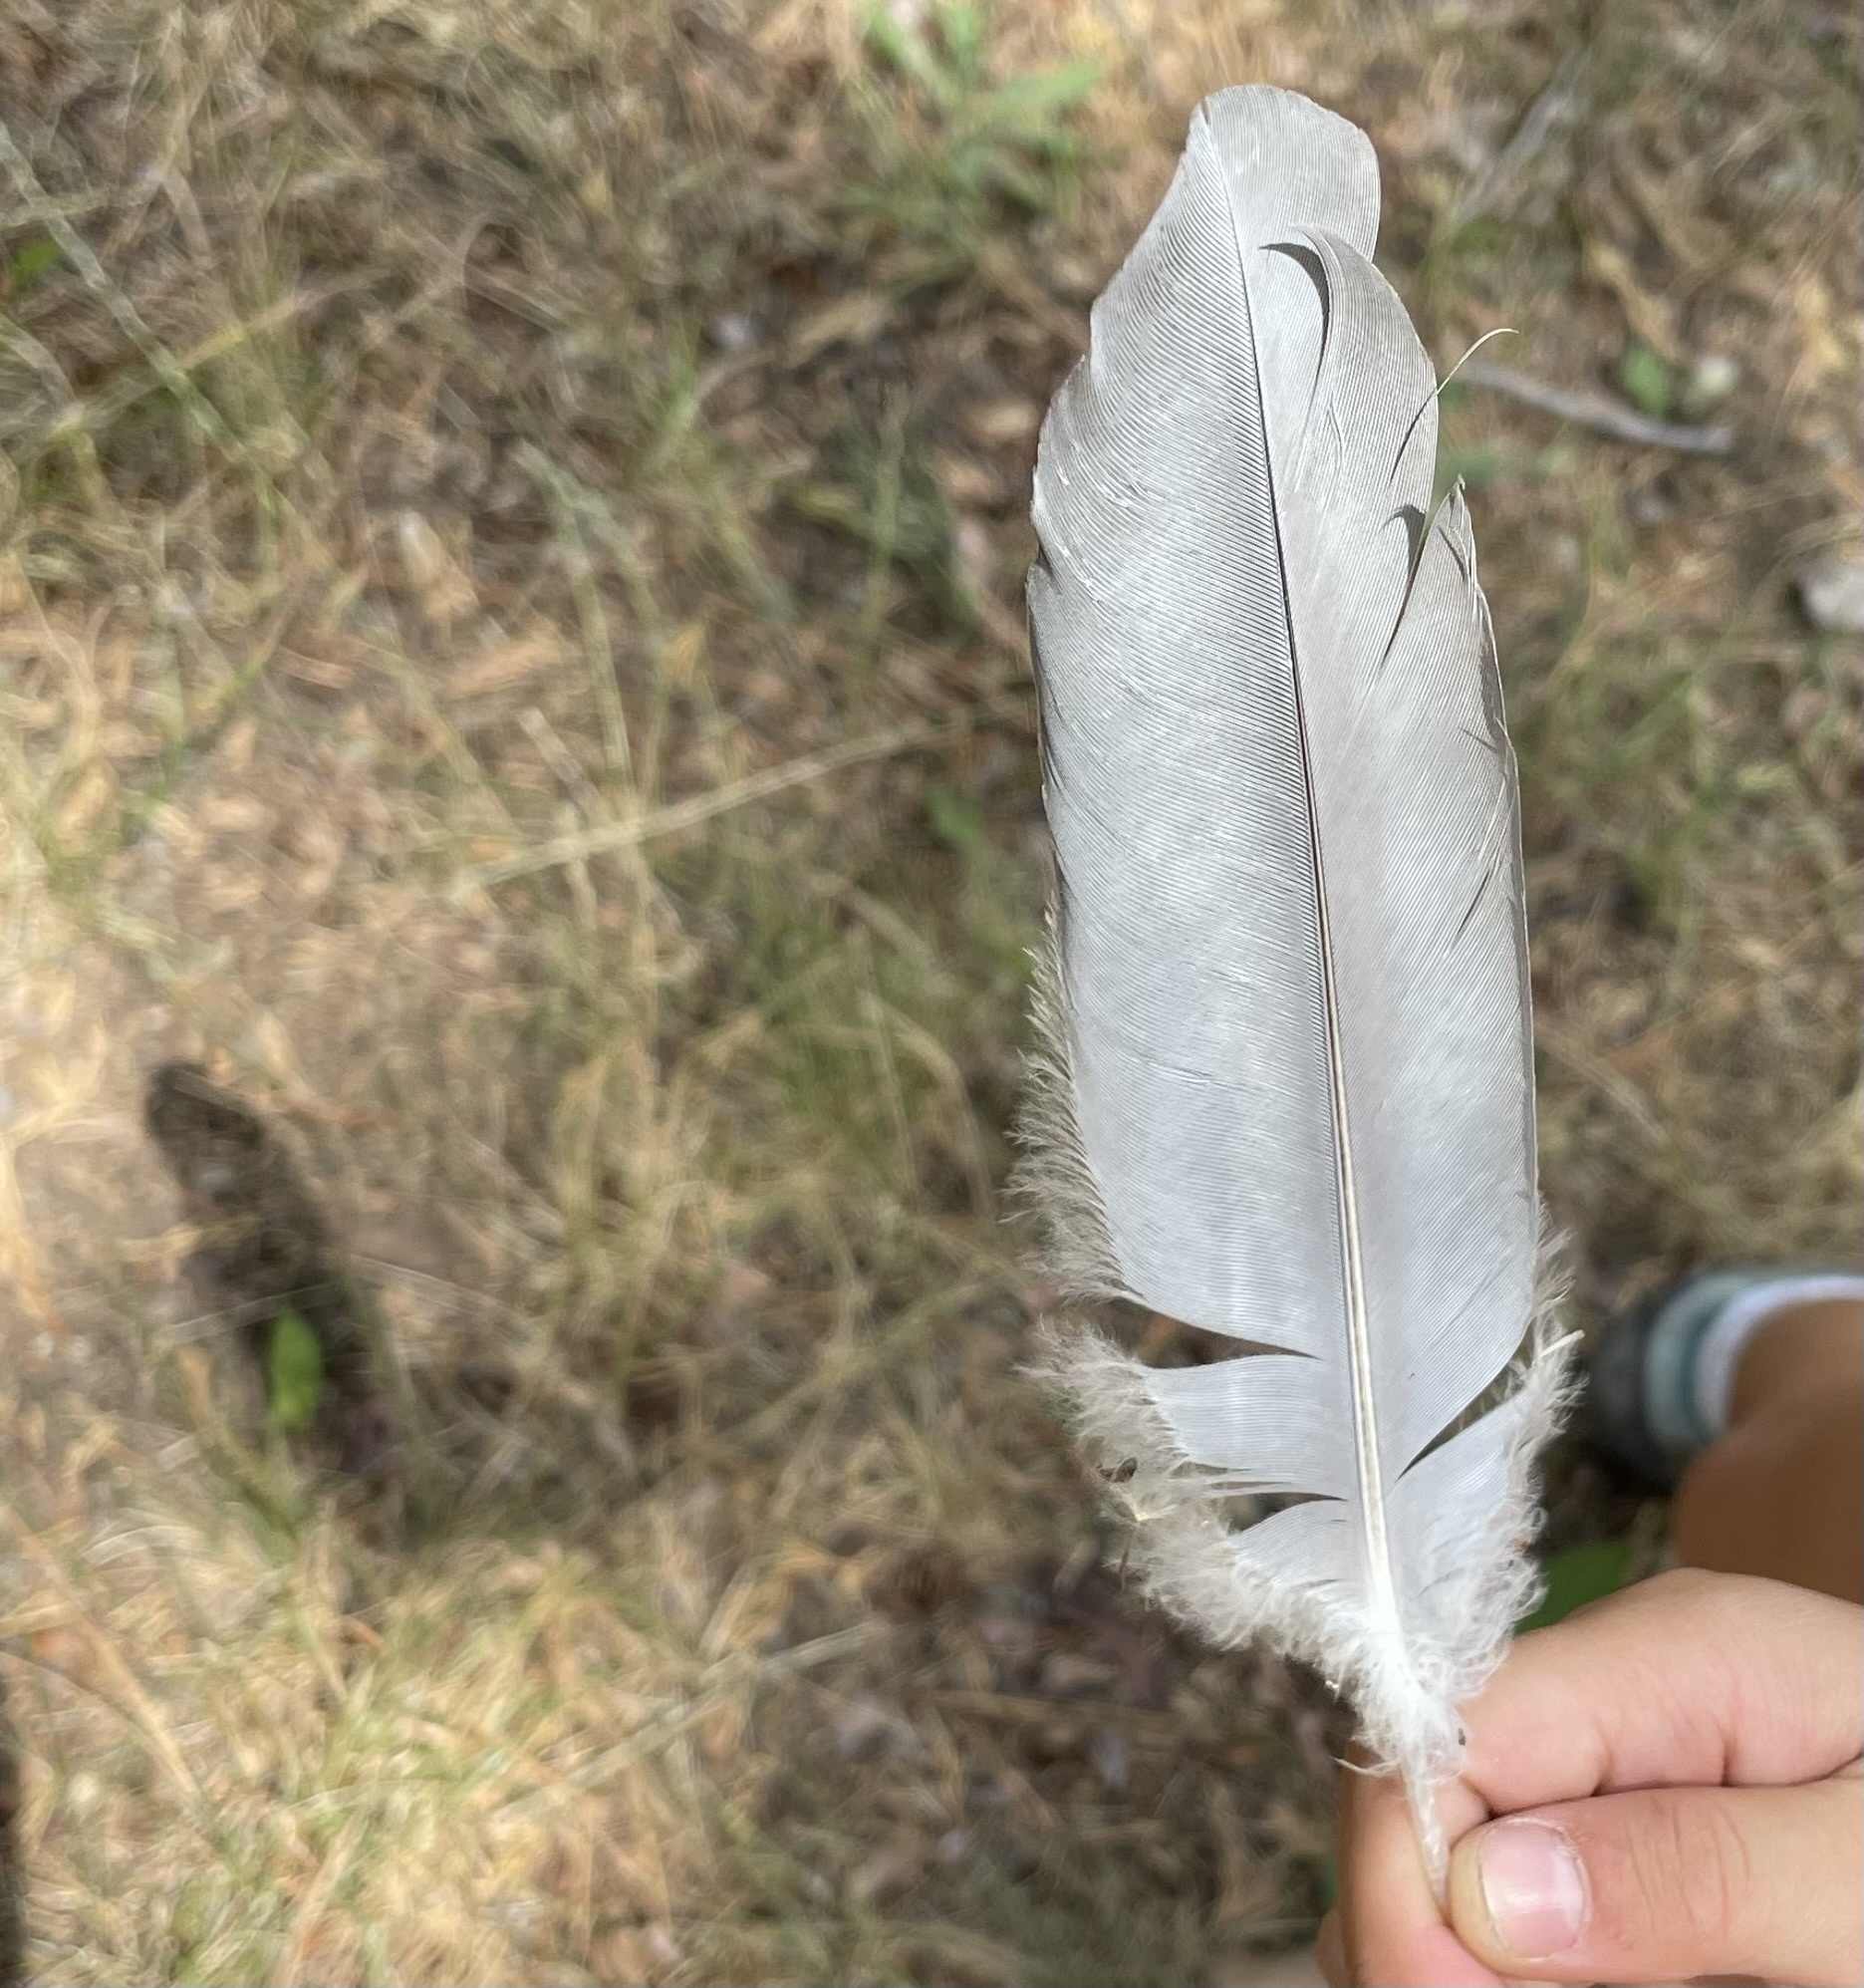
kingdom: Animalia
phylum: Chordata
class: Aves
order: Pelecaniformes
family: Ardeidae
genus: Ardea
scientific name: Ardea herodias
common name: Great blue heron
